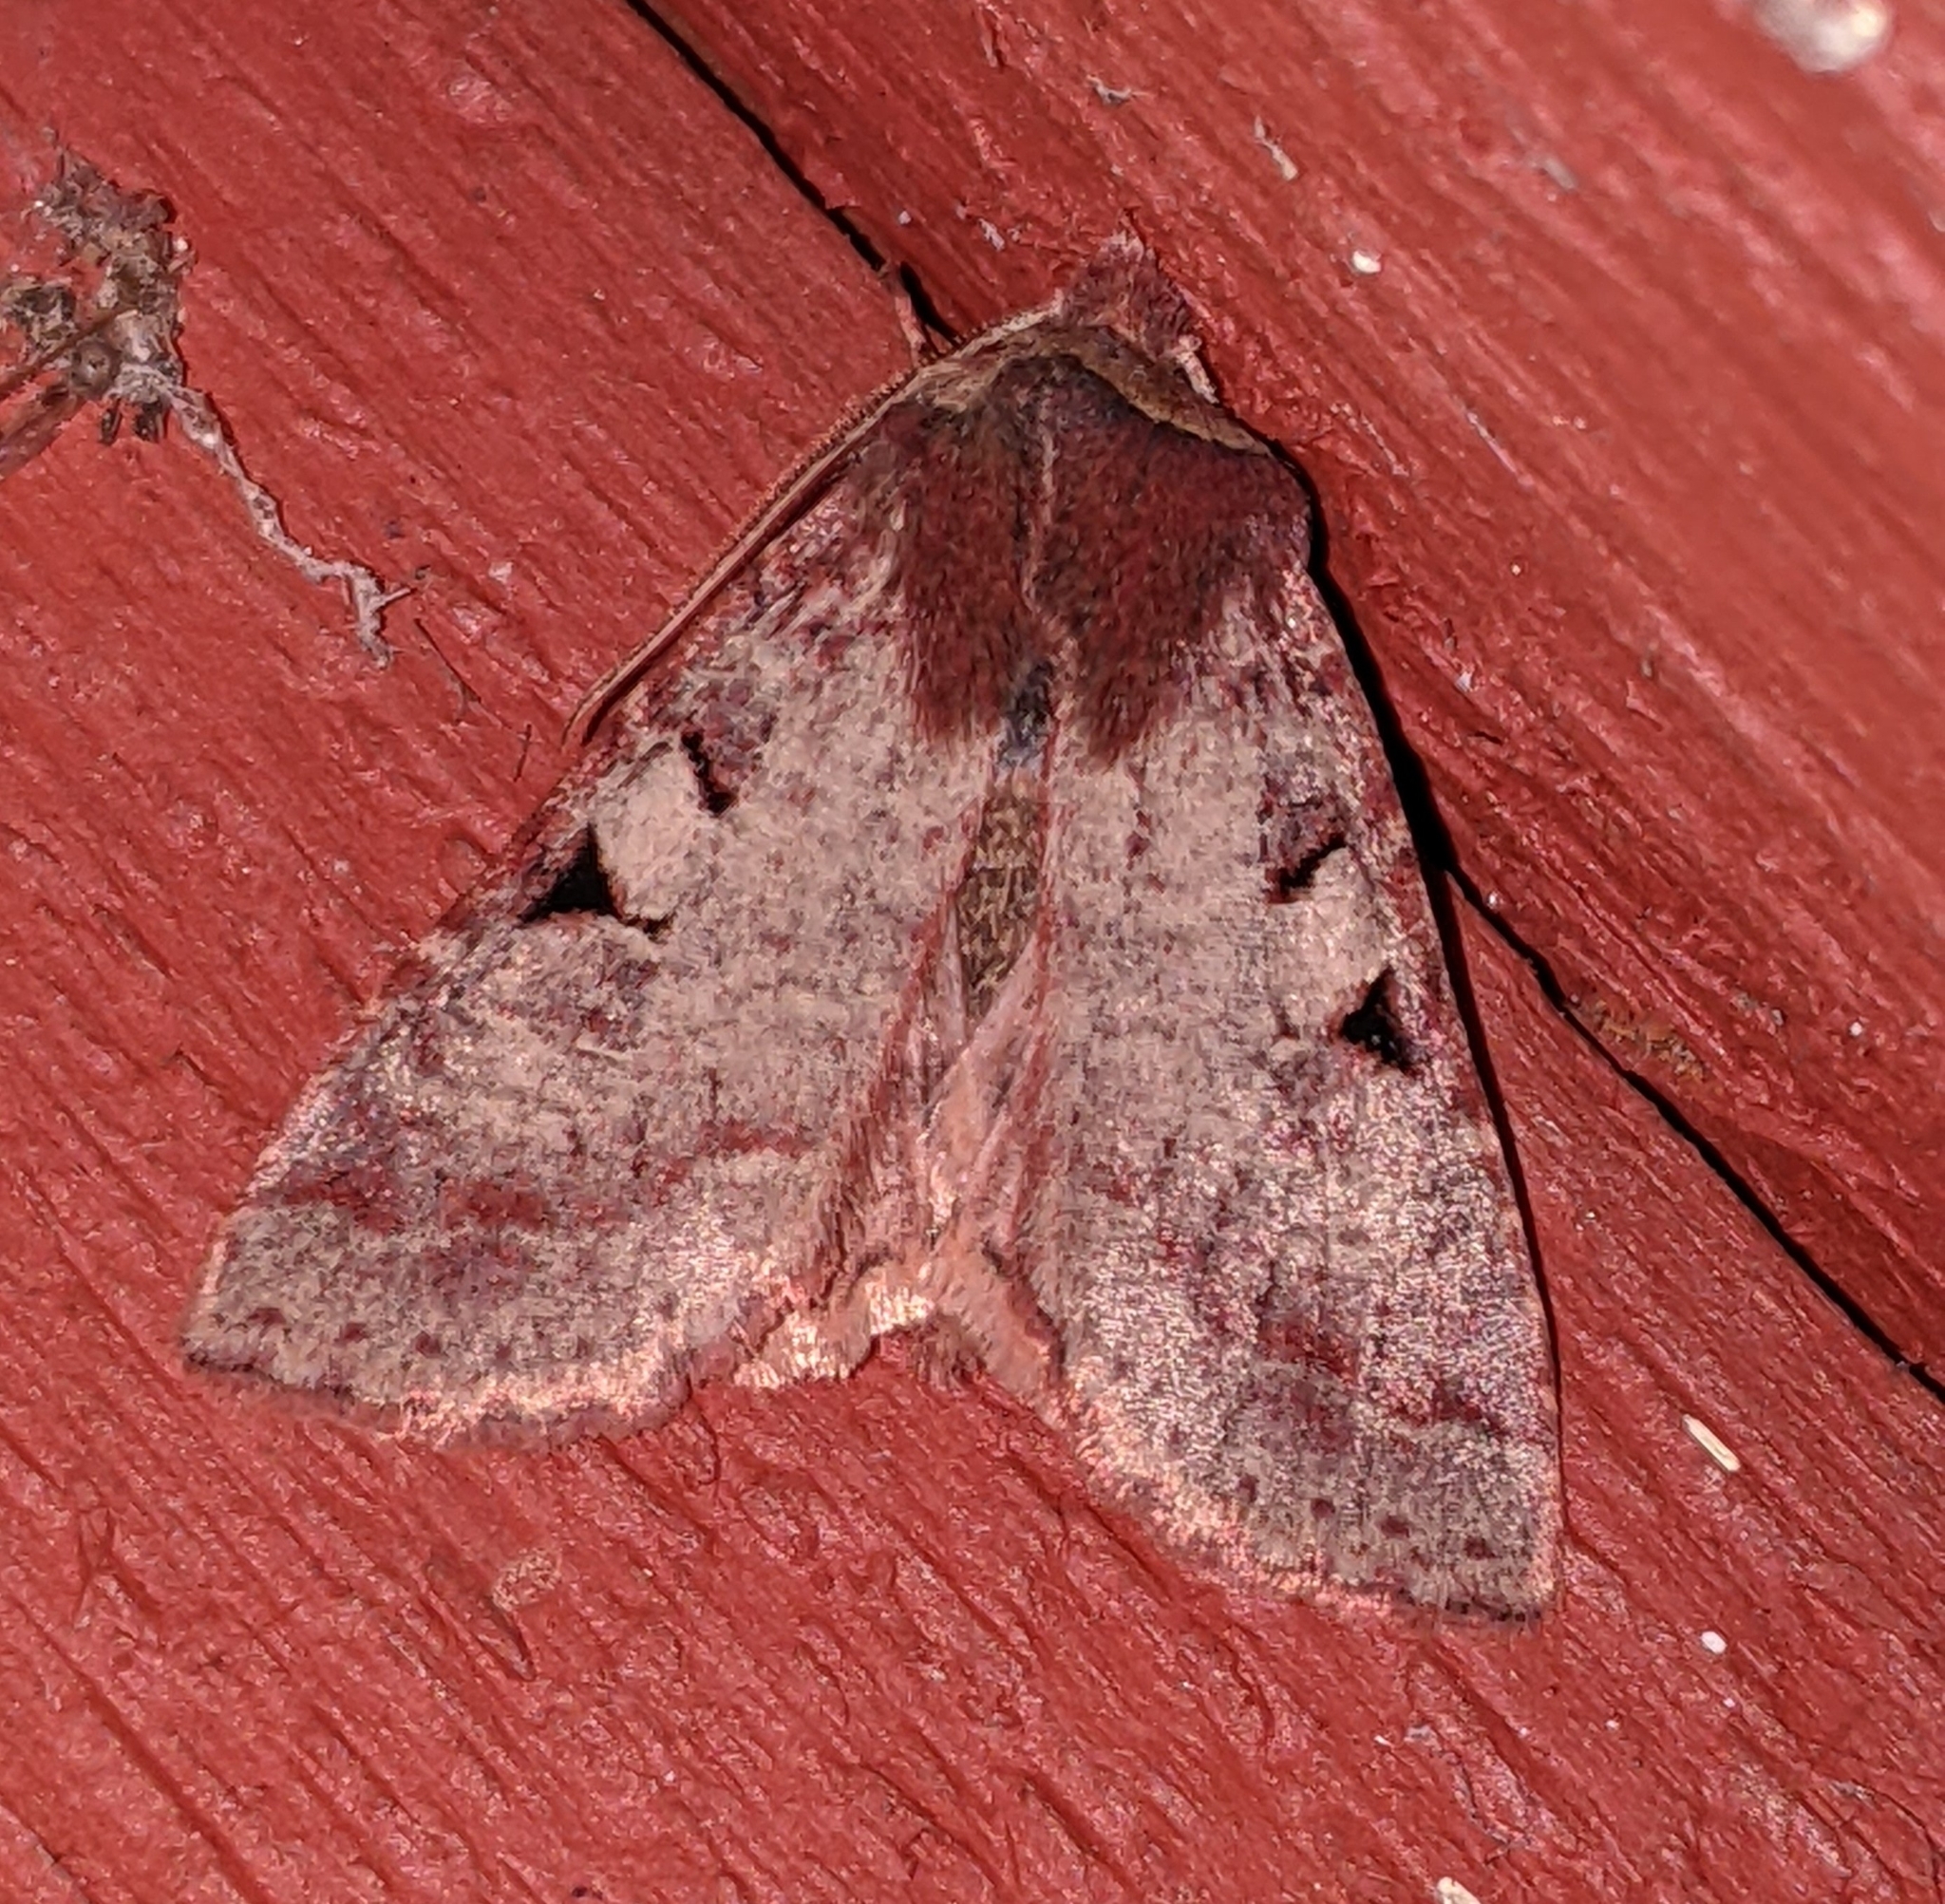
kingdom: Animalia
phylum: Arthropoda
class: Insecta
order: Lepidoptera
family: Noctuidae
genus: Orthosia
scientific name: Orthosia praeses
